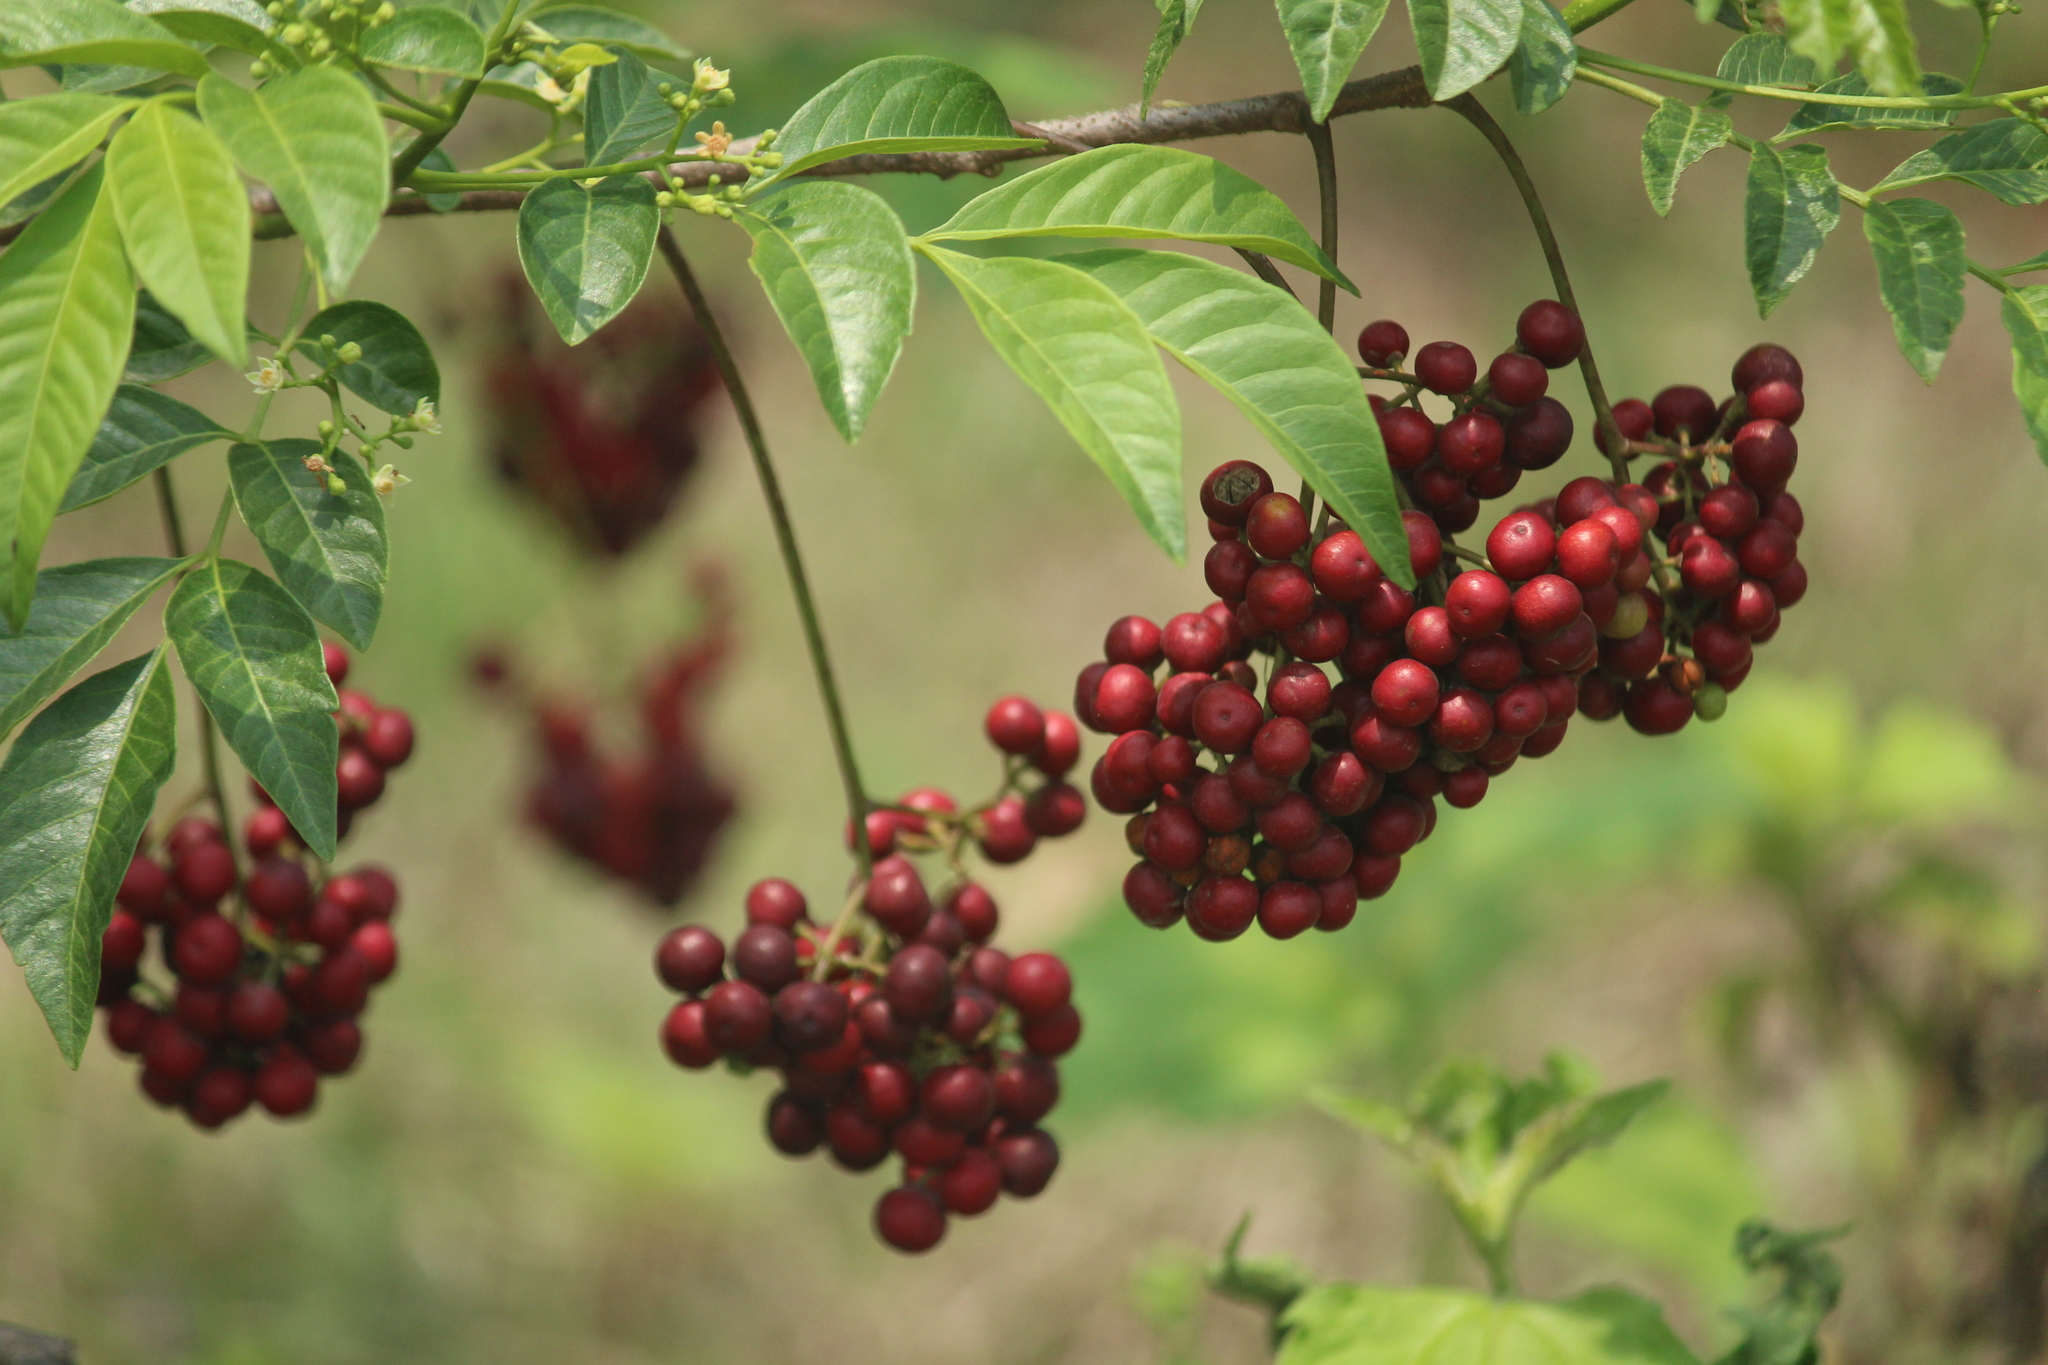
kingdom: Plantae
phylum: Tracheophyta
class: Magnoliopsida
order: Sapindales
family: Meliaceae
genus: Cipadessa
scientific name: Cipadessa baccifera
